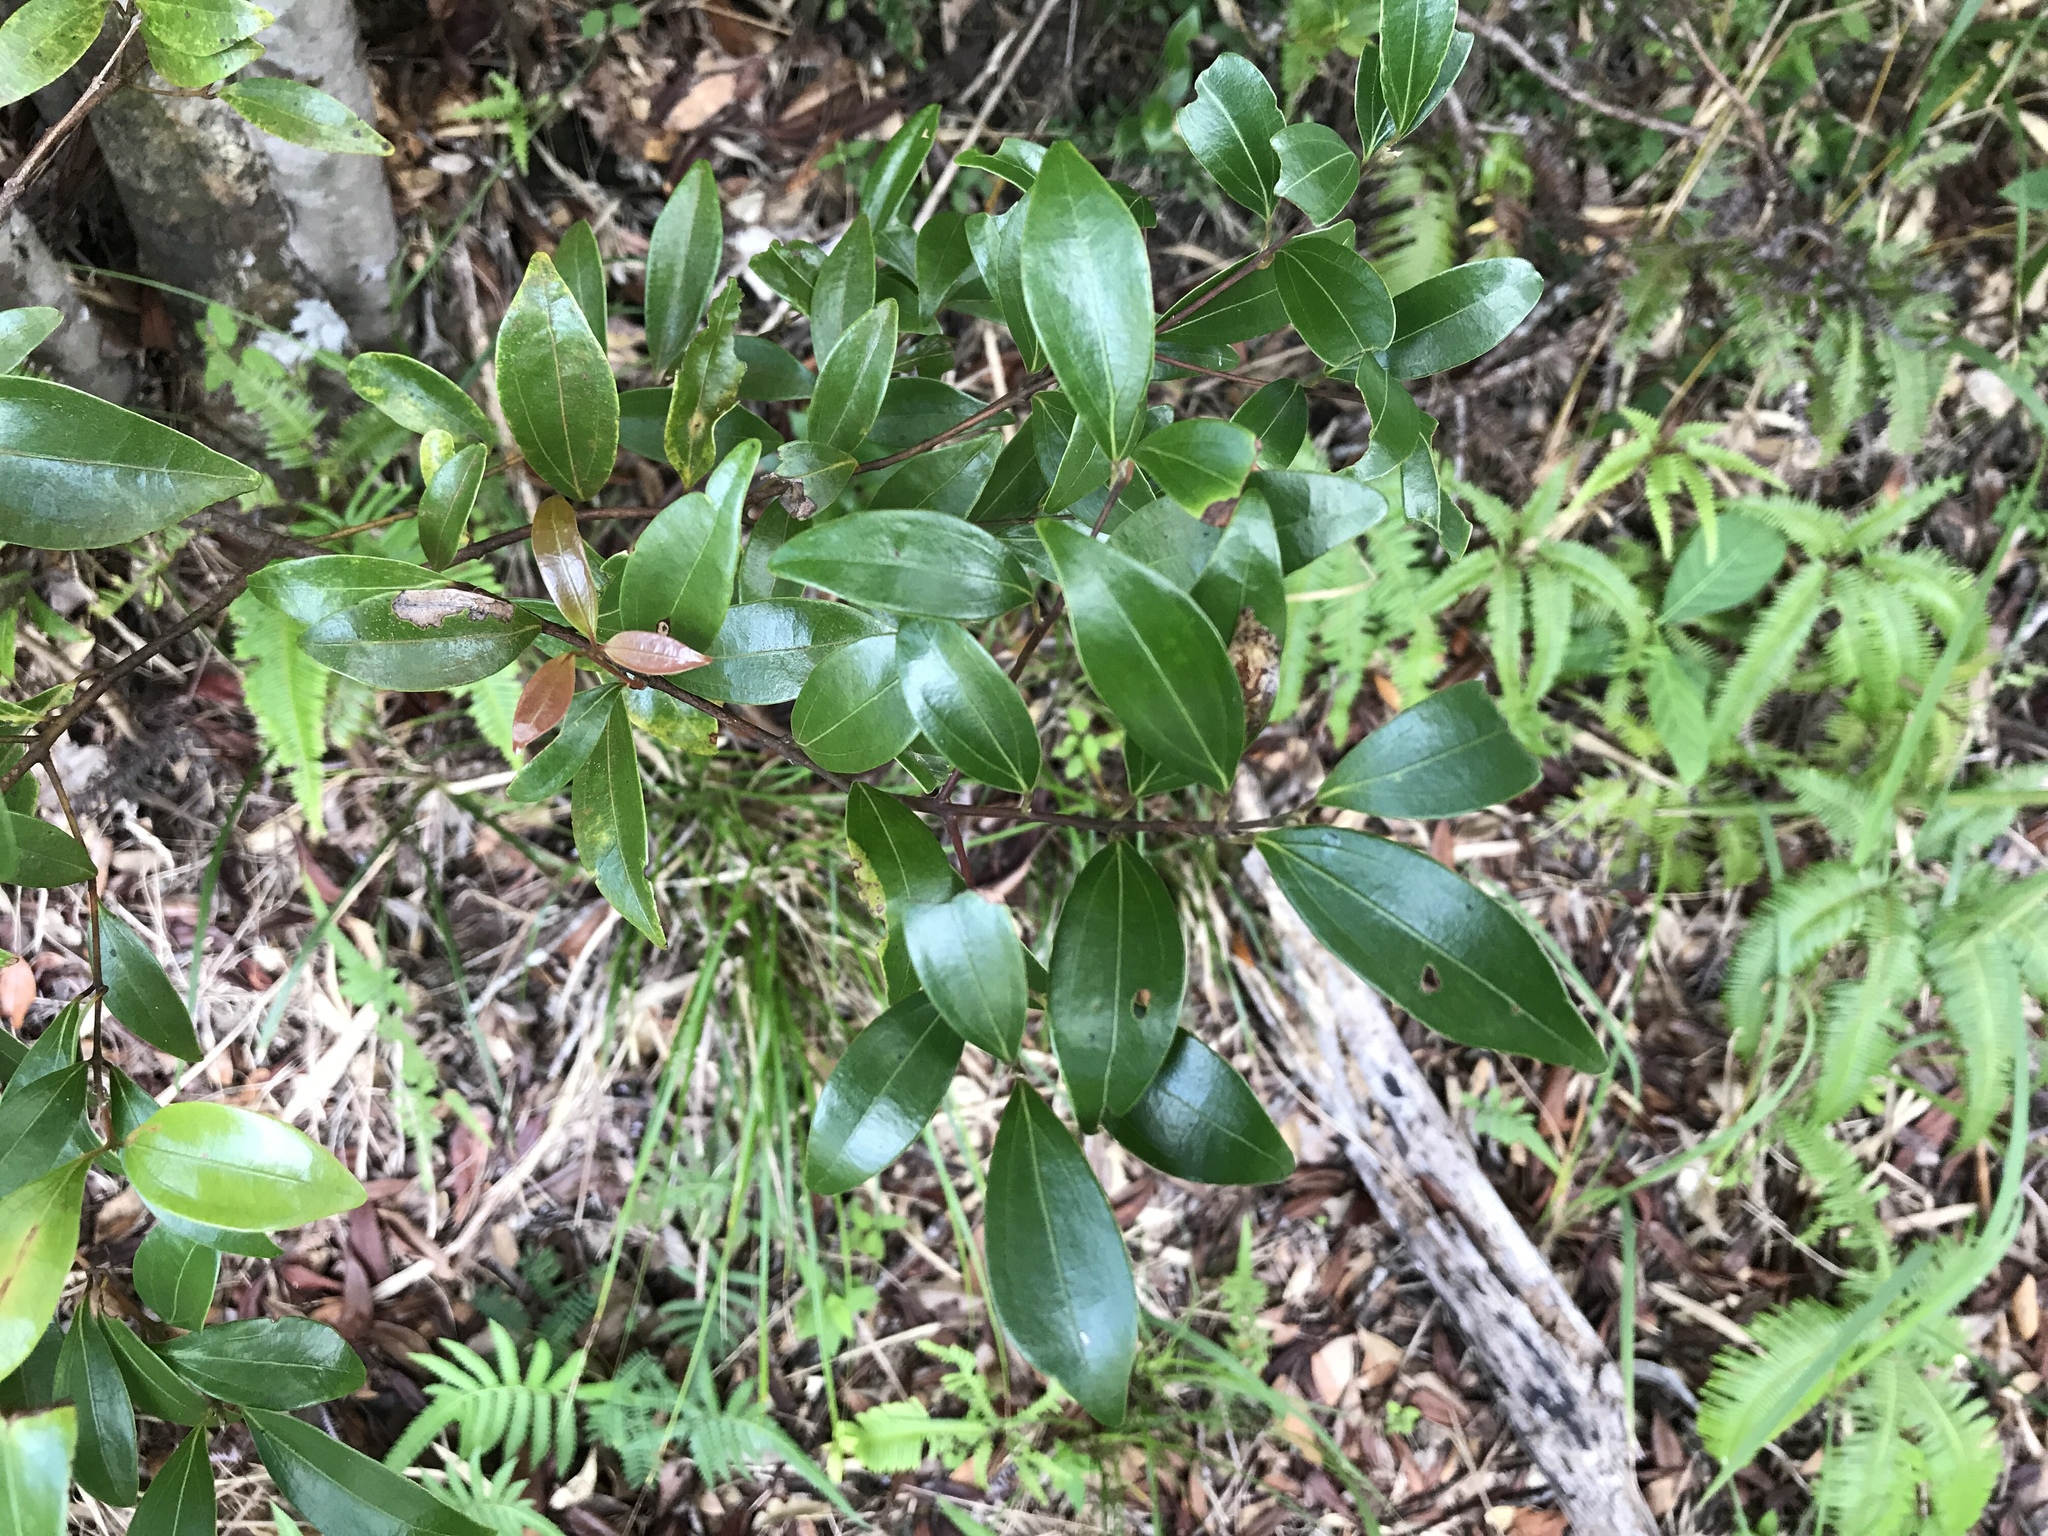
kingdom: Plantae
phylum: Tracheophyta
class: Magnoliopsida
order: Laurales
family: Lauraceae
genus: Cinnamomum
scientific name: Cinnamomum doederleinii
